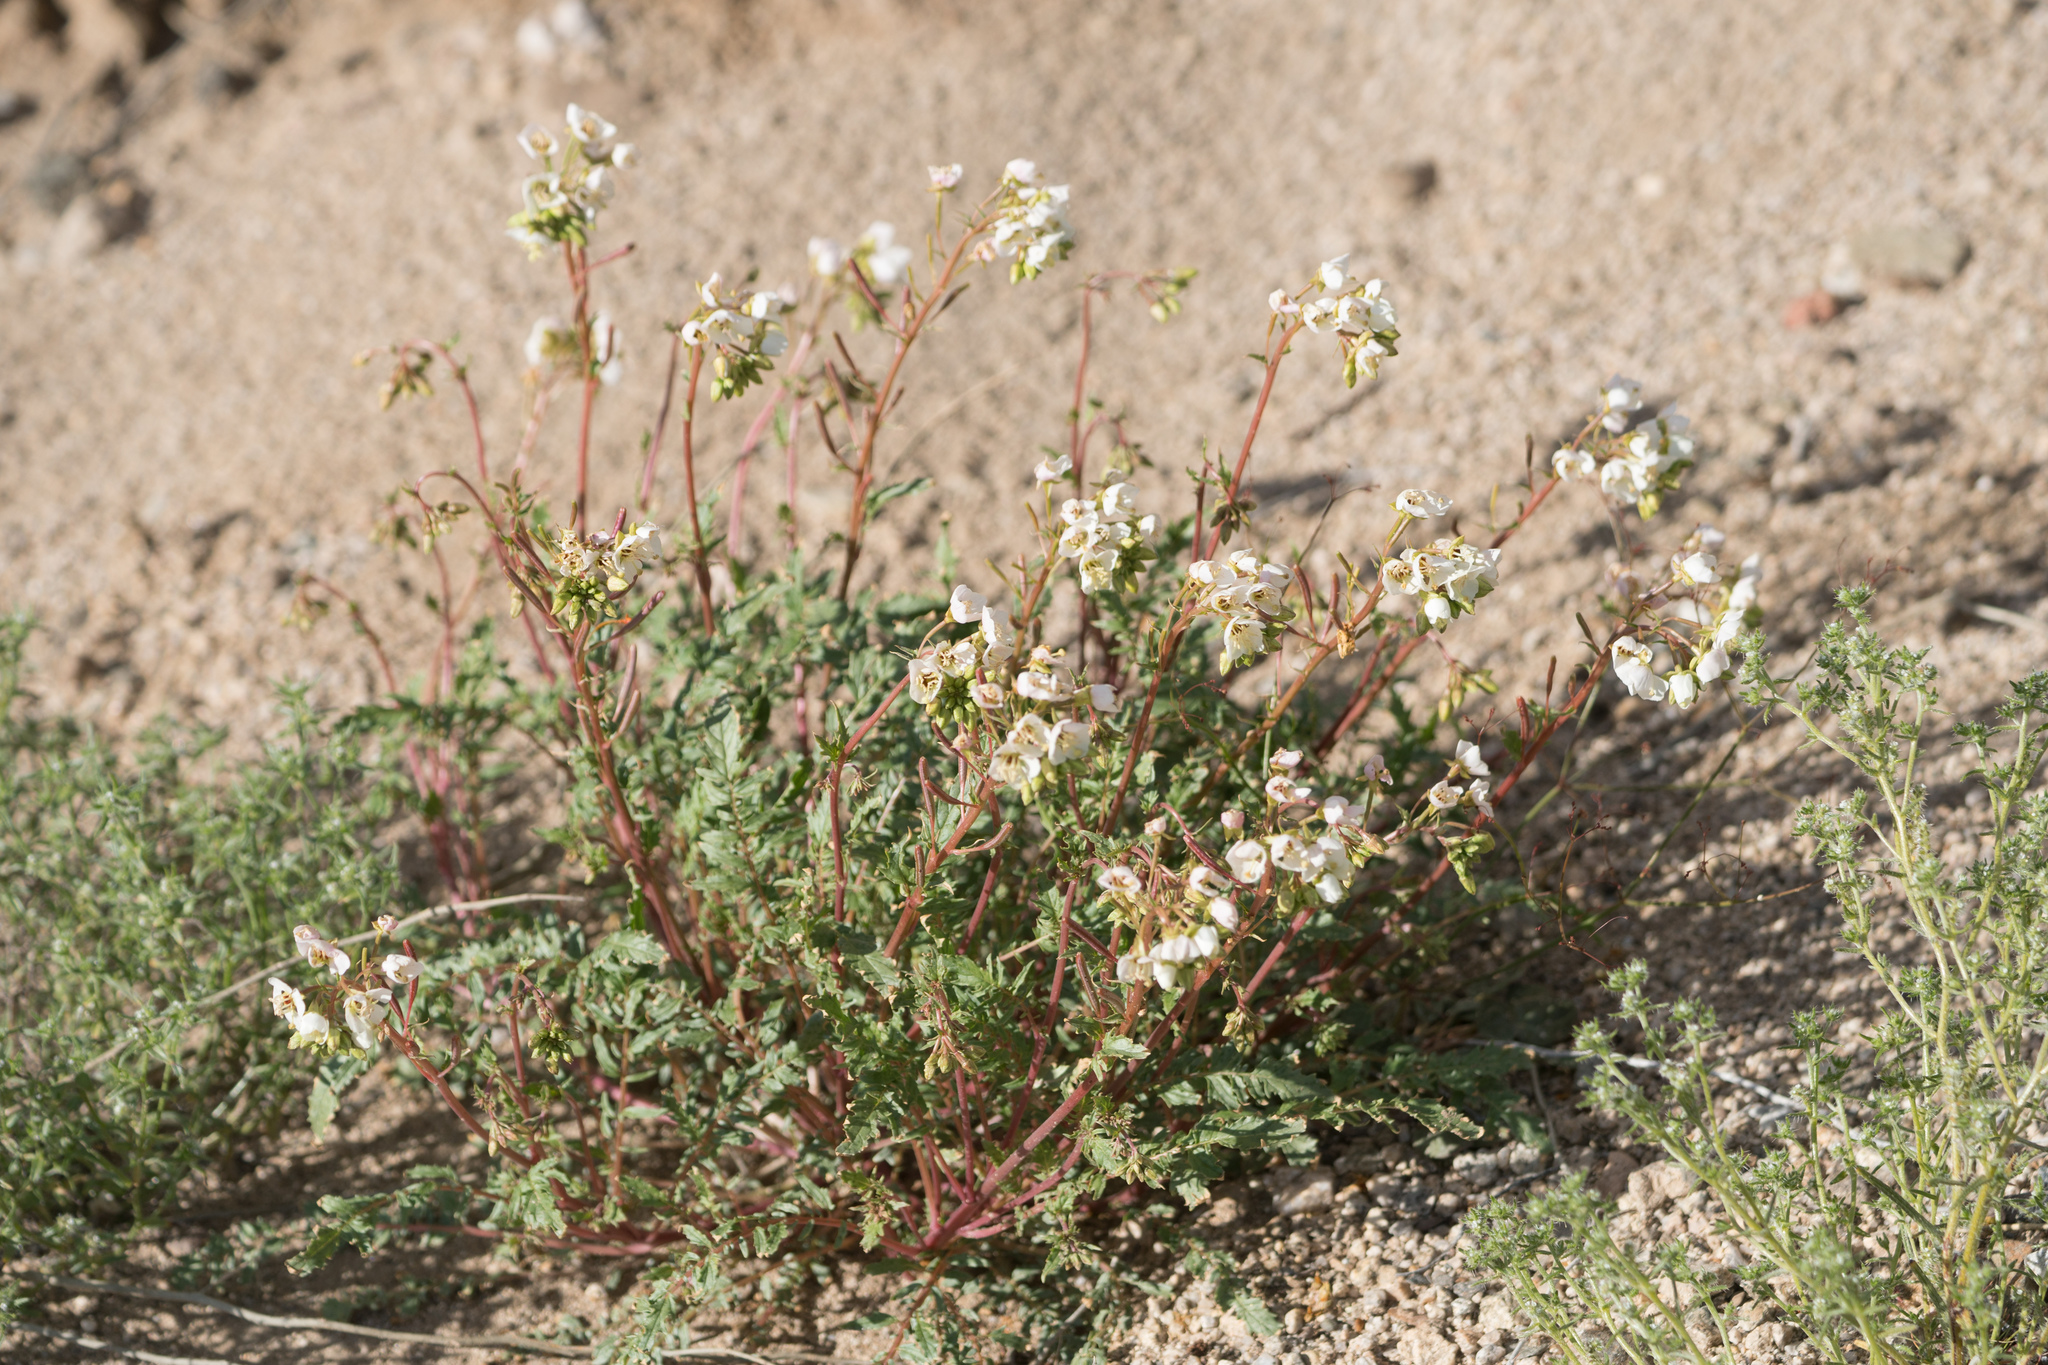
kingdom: Plantae
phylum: Tracheophyta
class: Magnoliopsida
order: Myrtales
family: Onagraceae
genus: Chylismia
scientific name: Chylismia claviformis
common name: Browneyes
